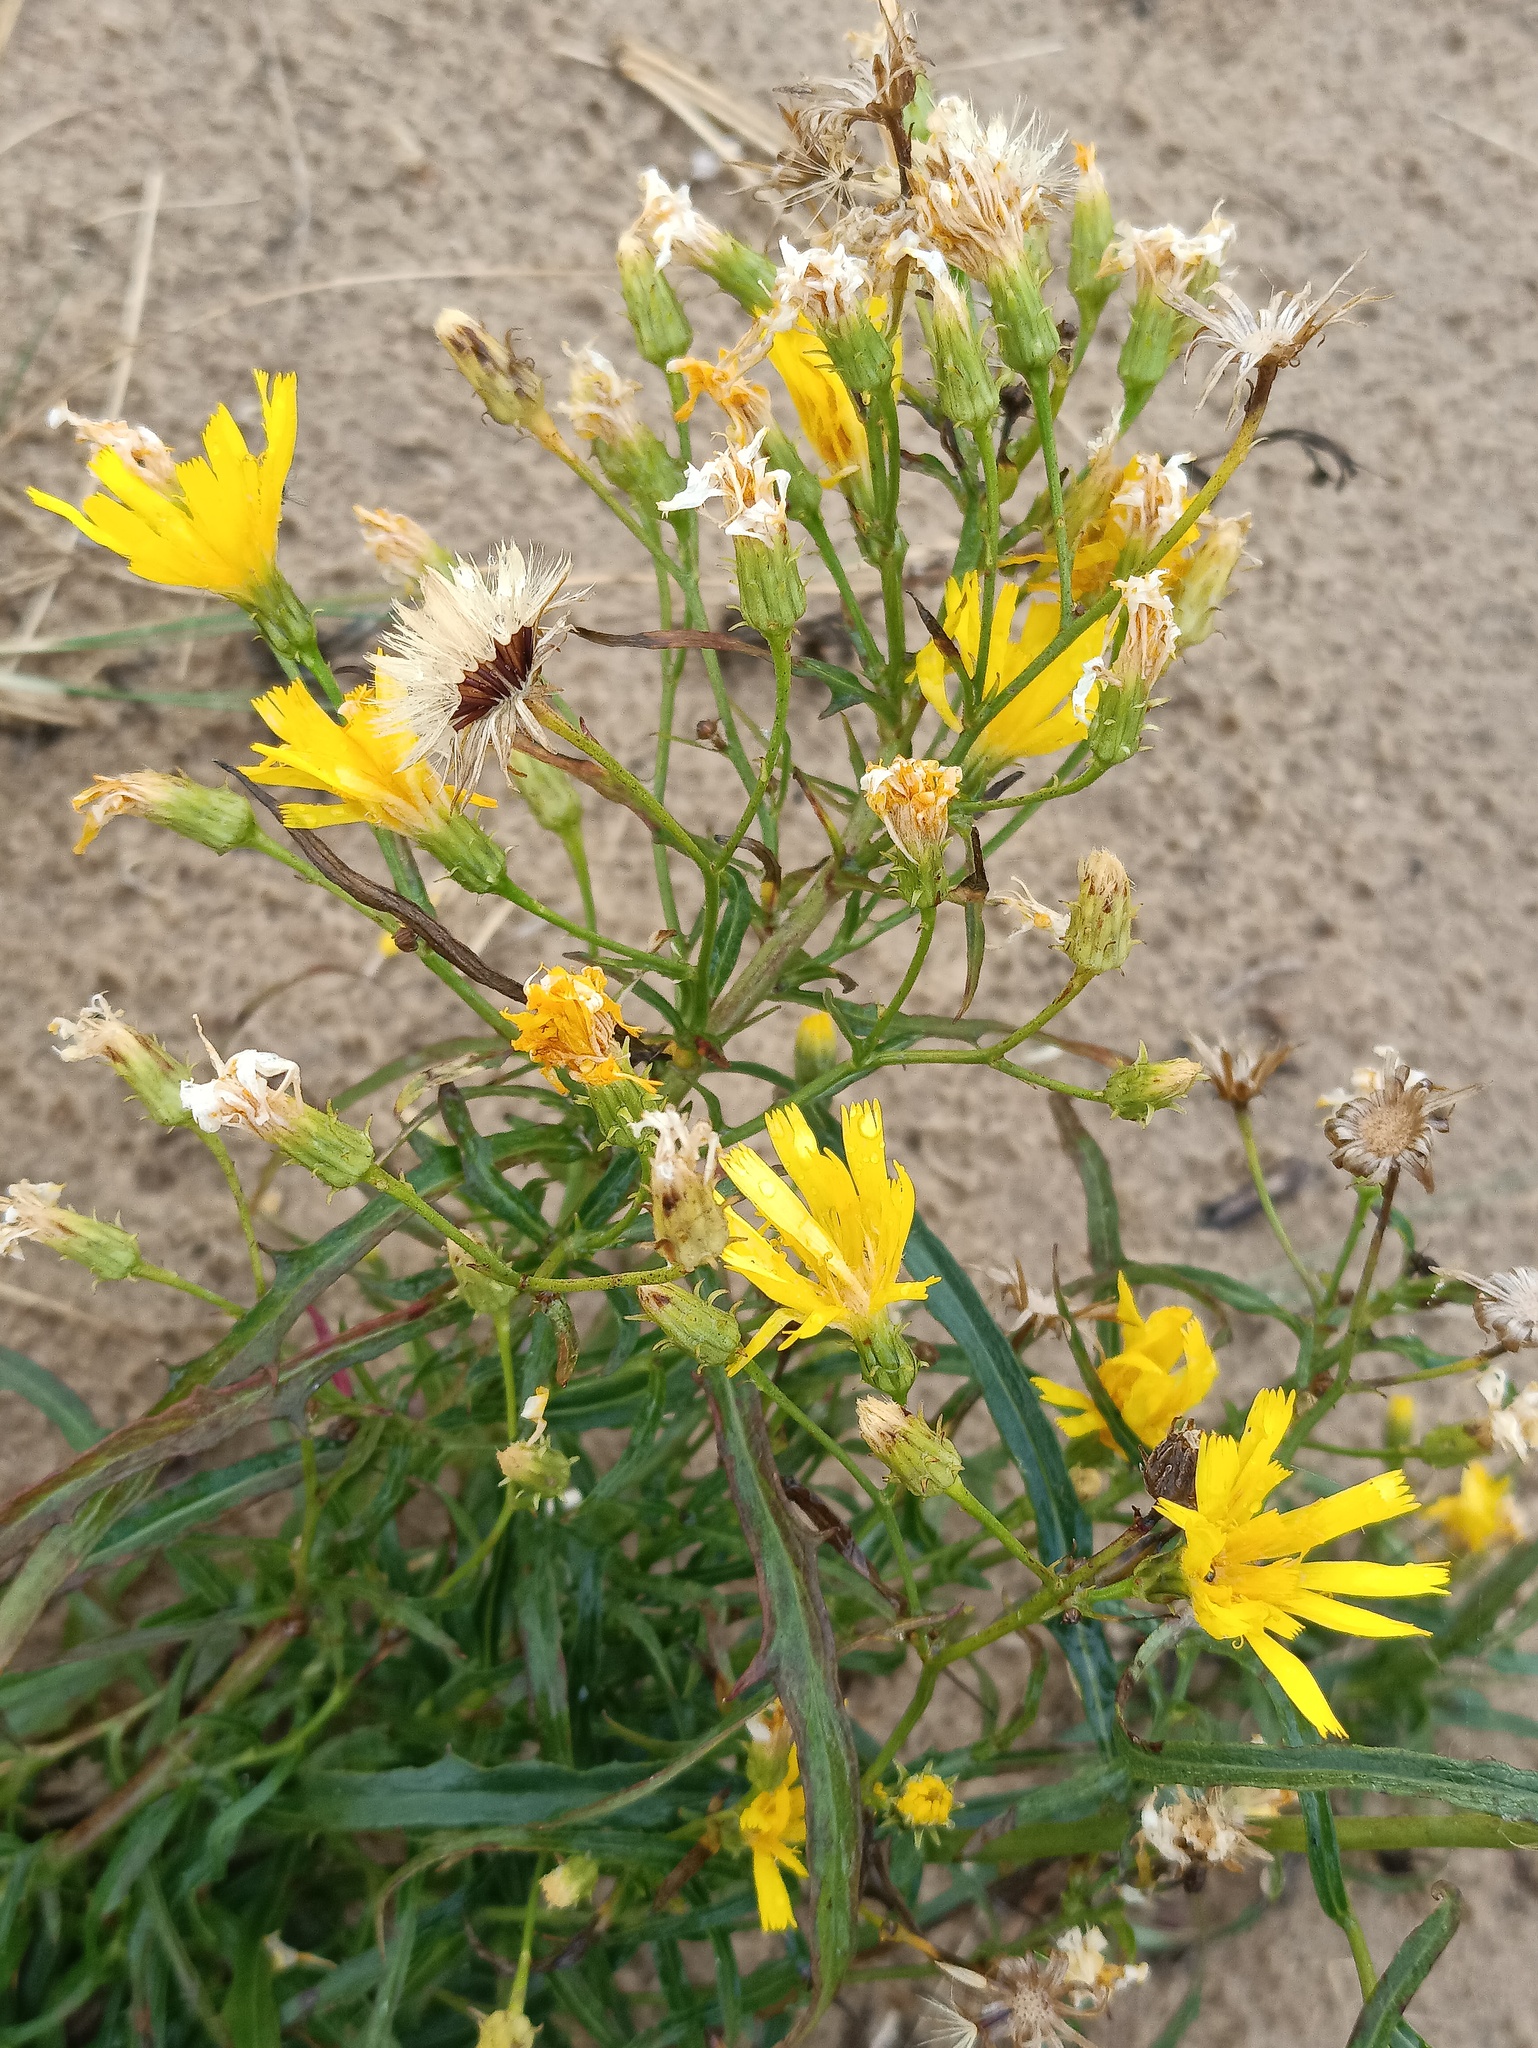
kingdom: Plantae
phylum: Tracheophyta
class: Magnoliopsida
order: Asterales
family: Asteraceae
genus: Hieracium
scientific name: Hieracium umbellatum
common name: Northern hawkweed
